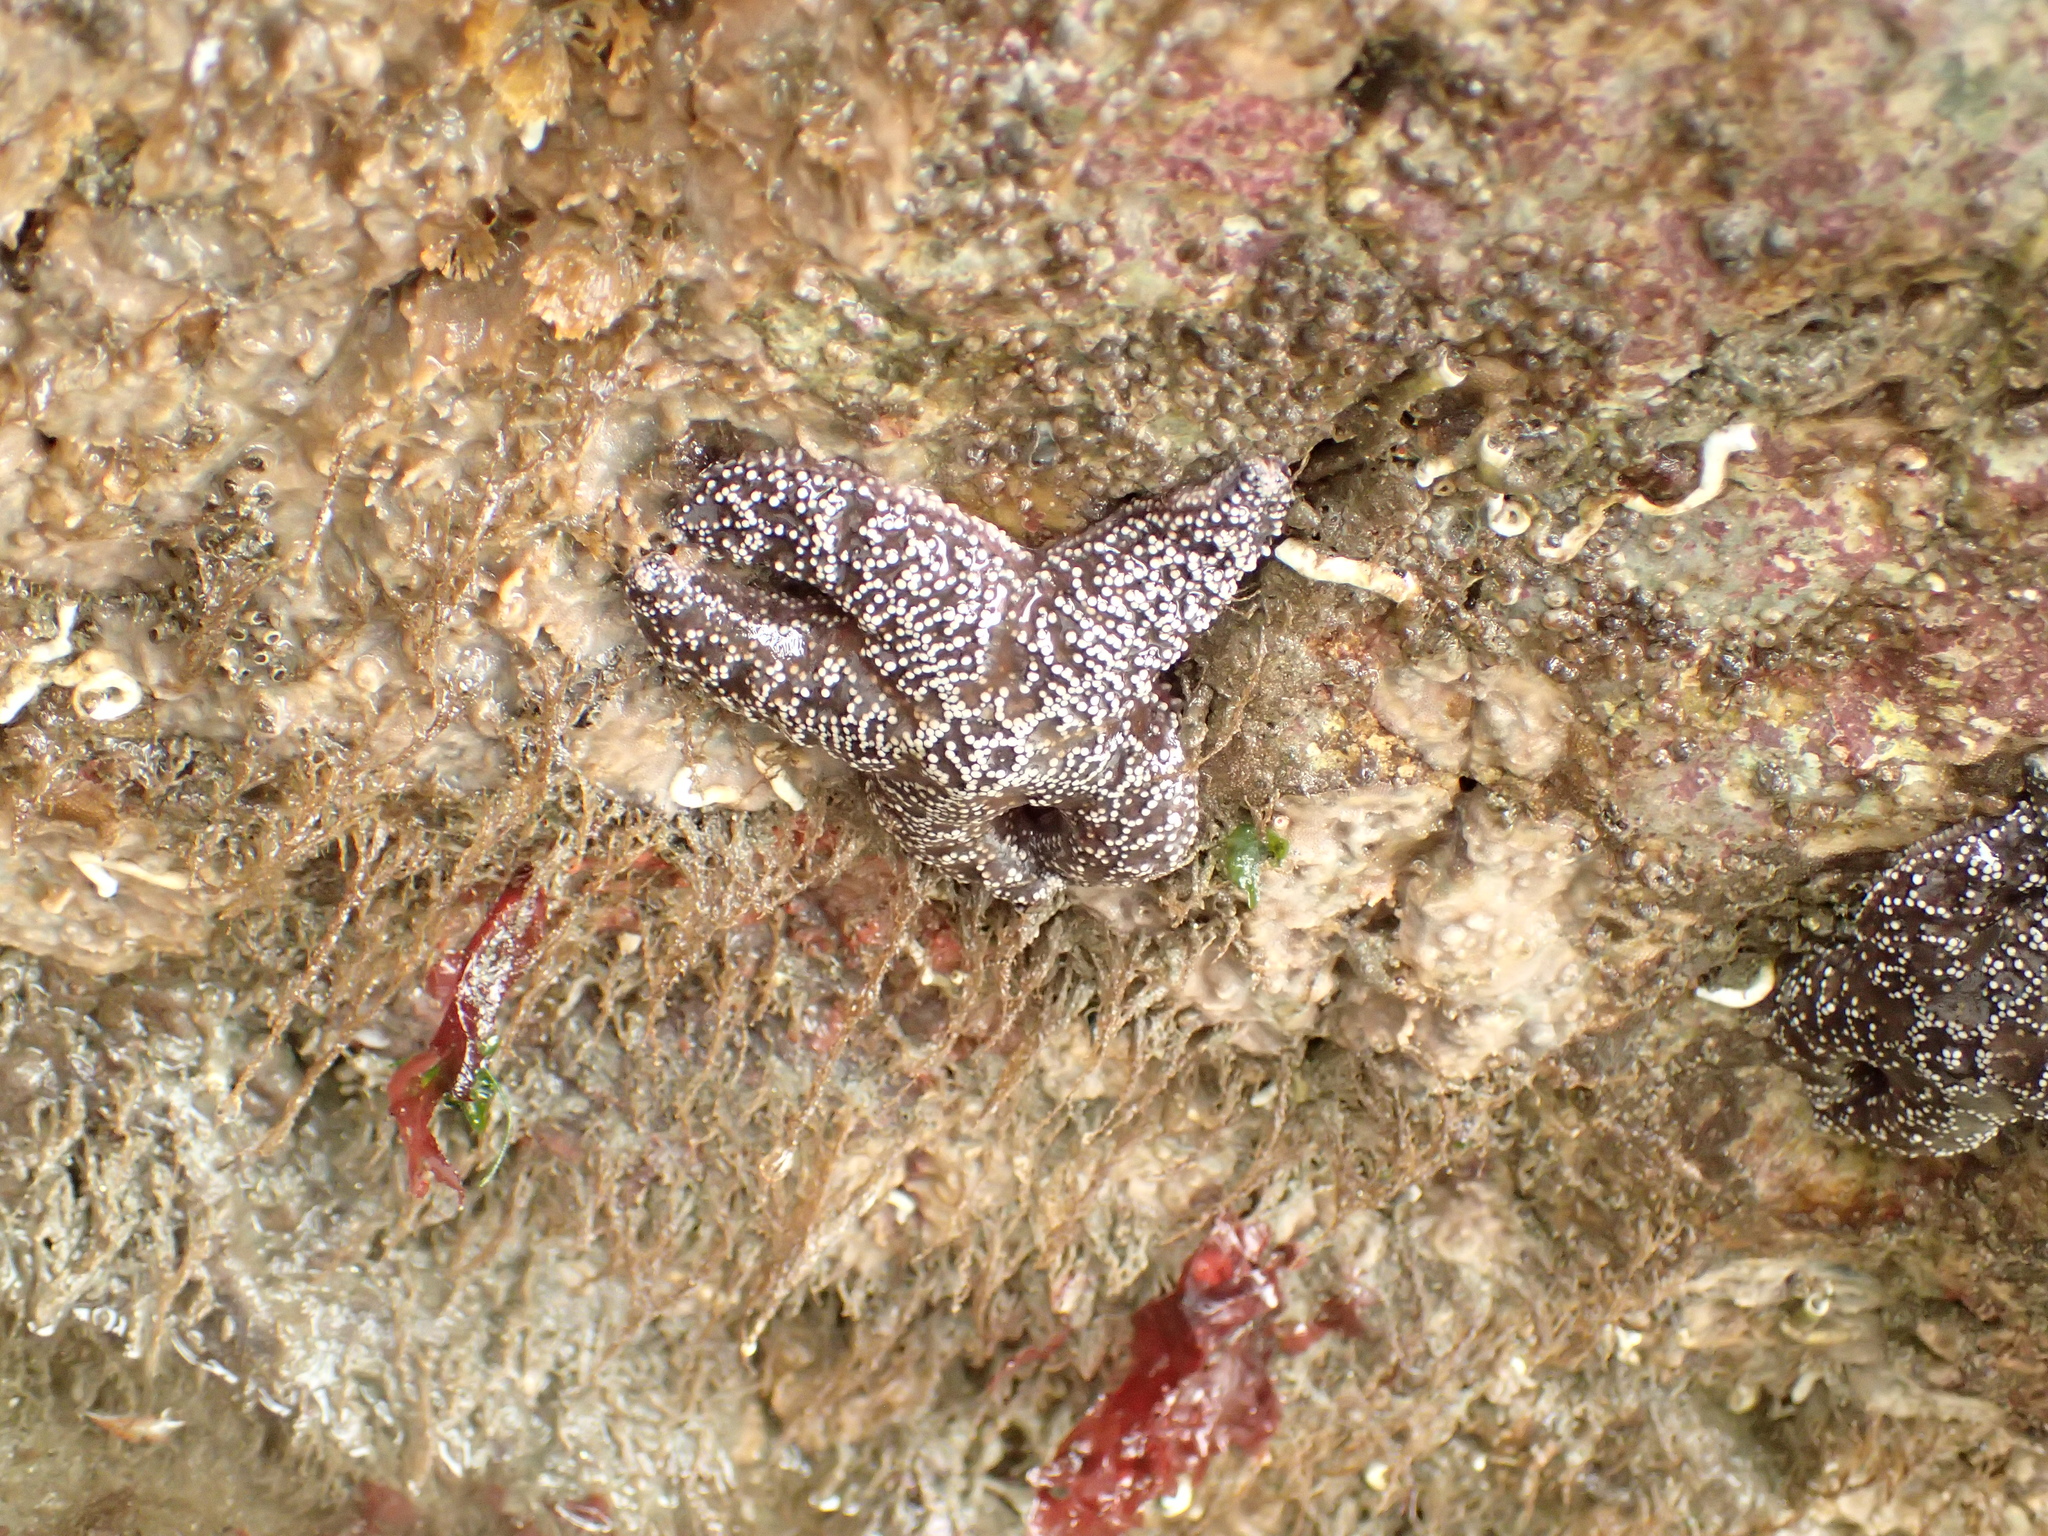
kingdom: Animalia
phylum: Echinodermata
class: Asteroidea
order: Forcipulatida
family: Asteriidae
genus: Pisaster
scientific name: Pisaster ochraceus
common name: Ochre stars
